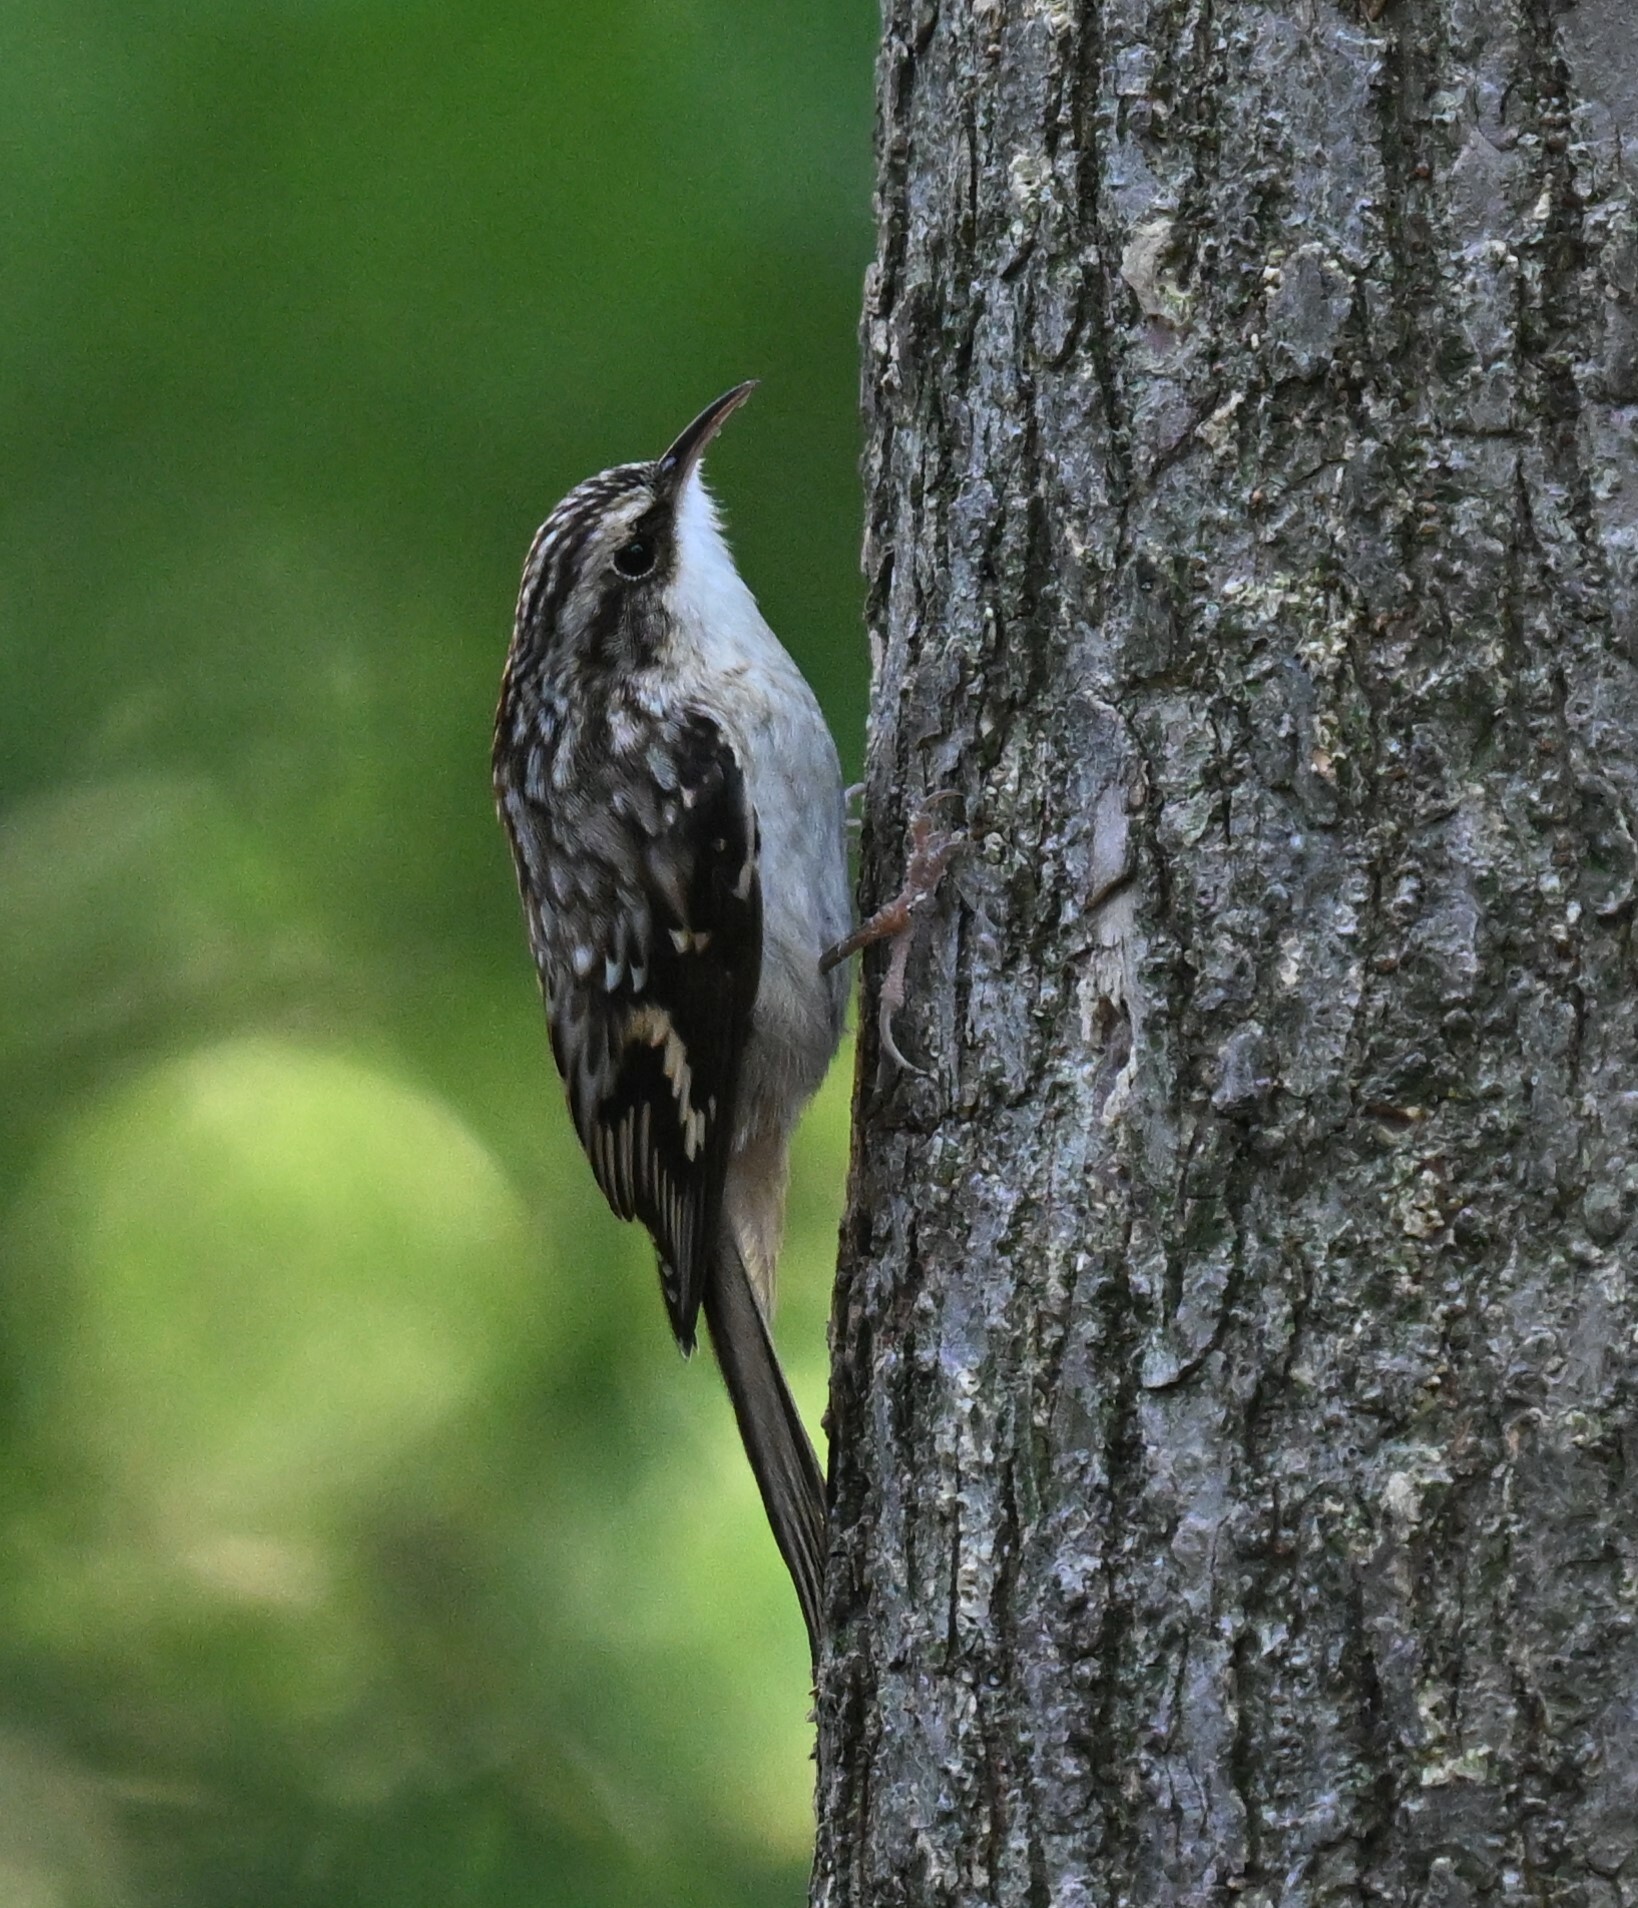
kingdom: Animalia
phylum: Chordata
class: Aves
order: Passeriformes
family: Certhiidae
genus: Certhia
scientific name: Certhia americana
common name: Brown creeper
